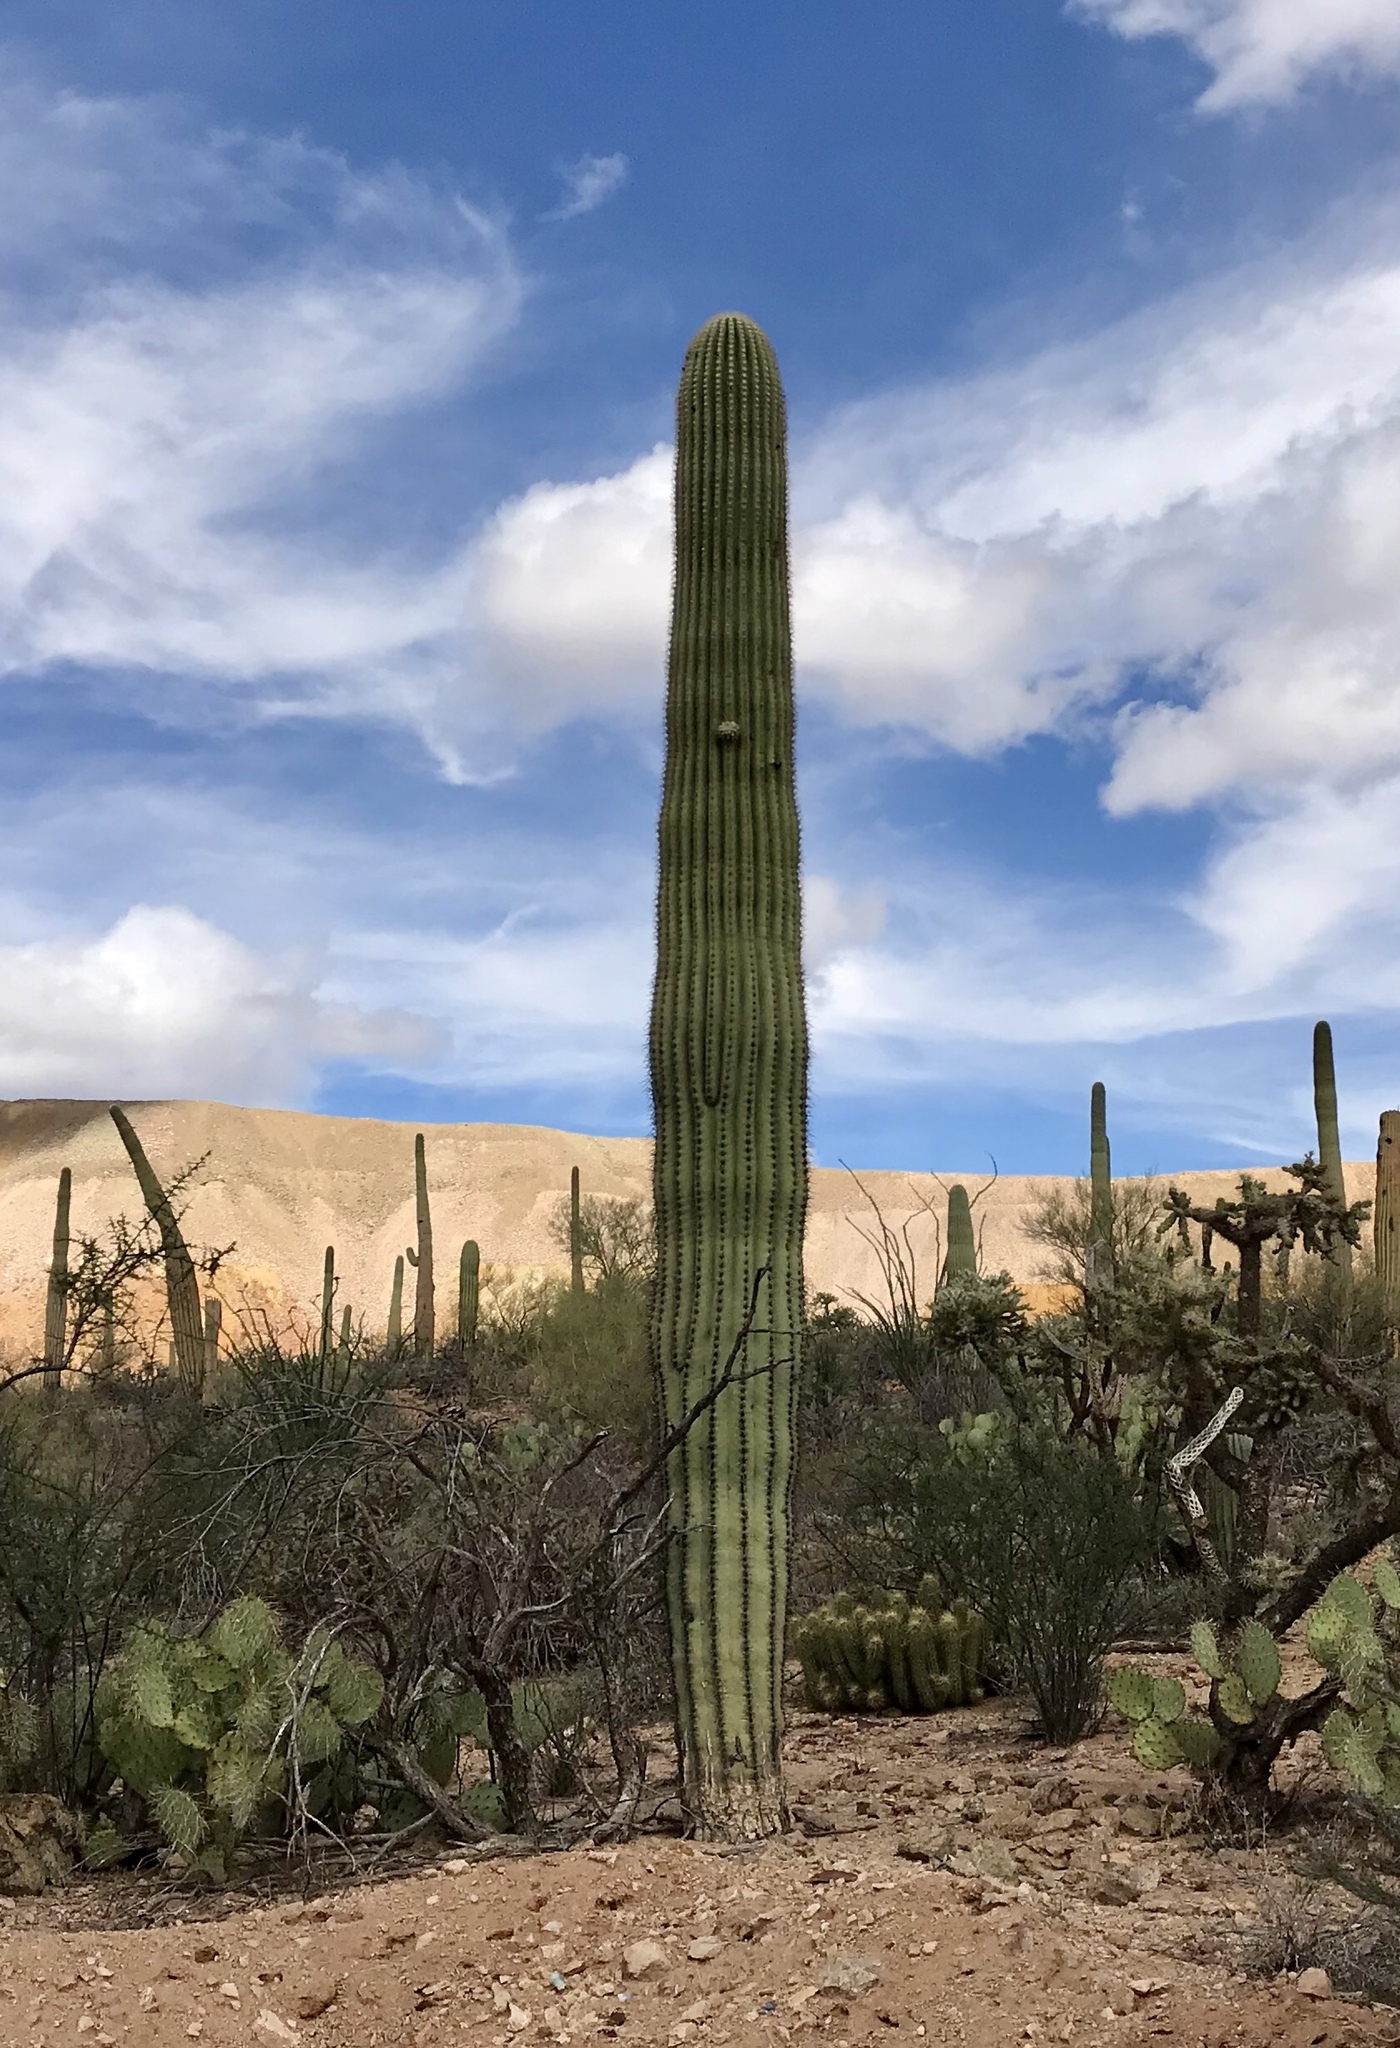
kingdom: Plantae
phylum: Tracheophyta
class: Magnoliopsida
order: Caryophyllales
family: Cactaceae
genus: Carnegiea
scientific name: Carnegiea gigantea
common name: Saguaro
